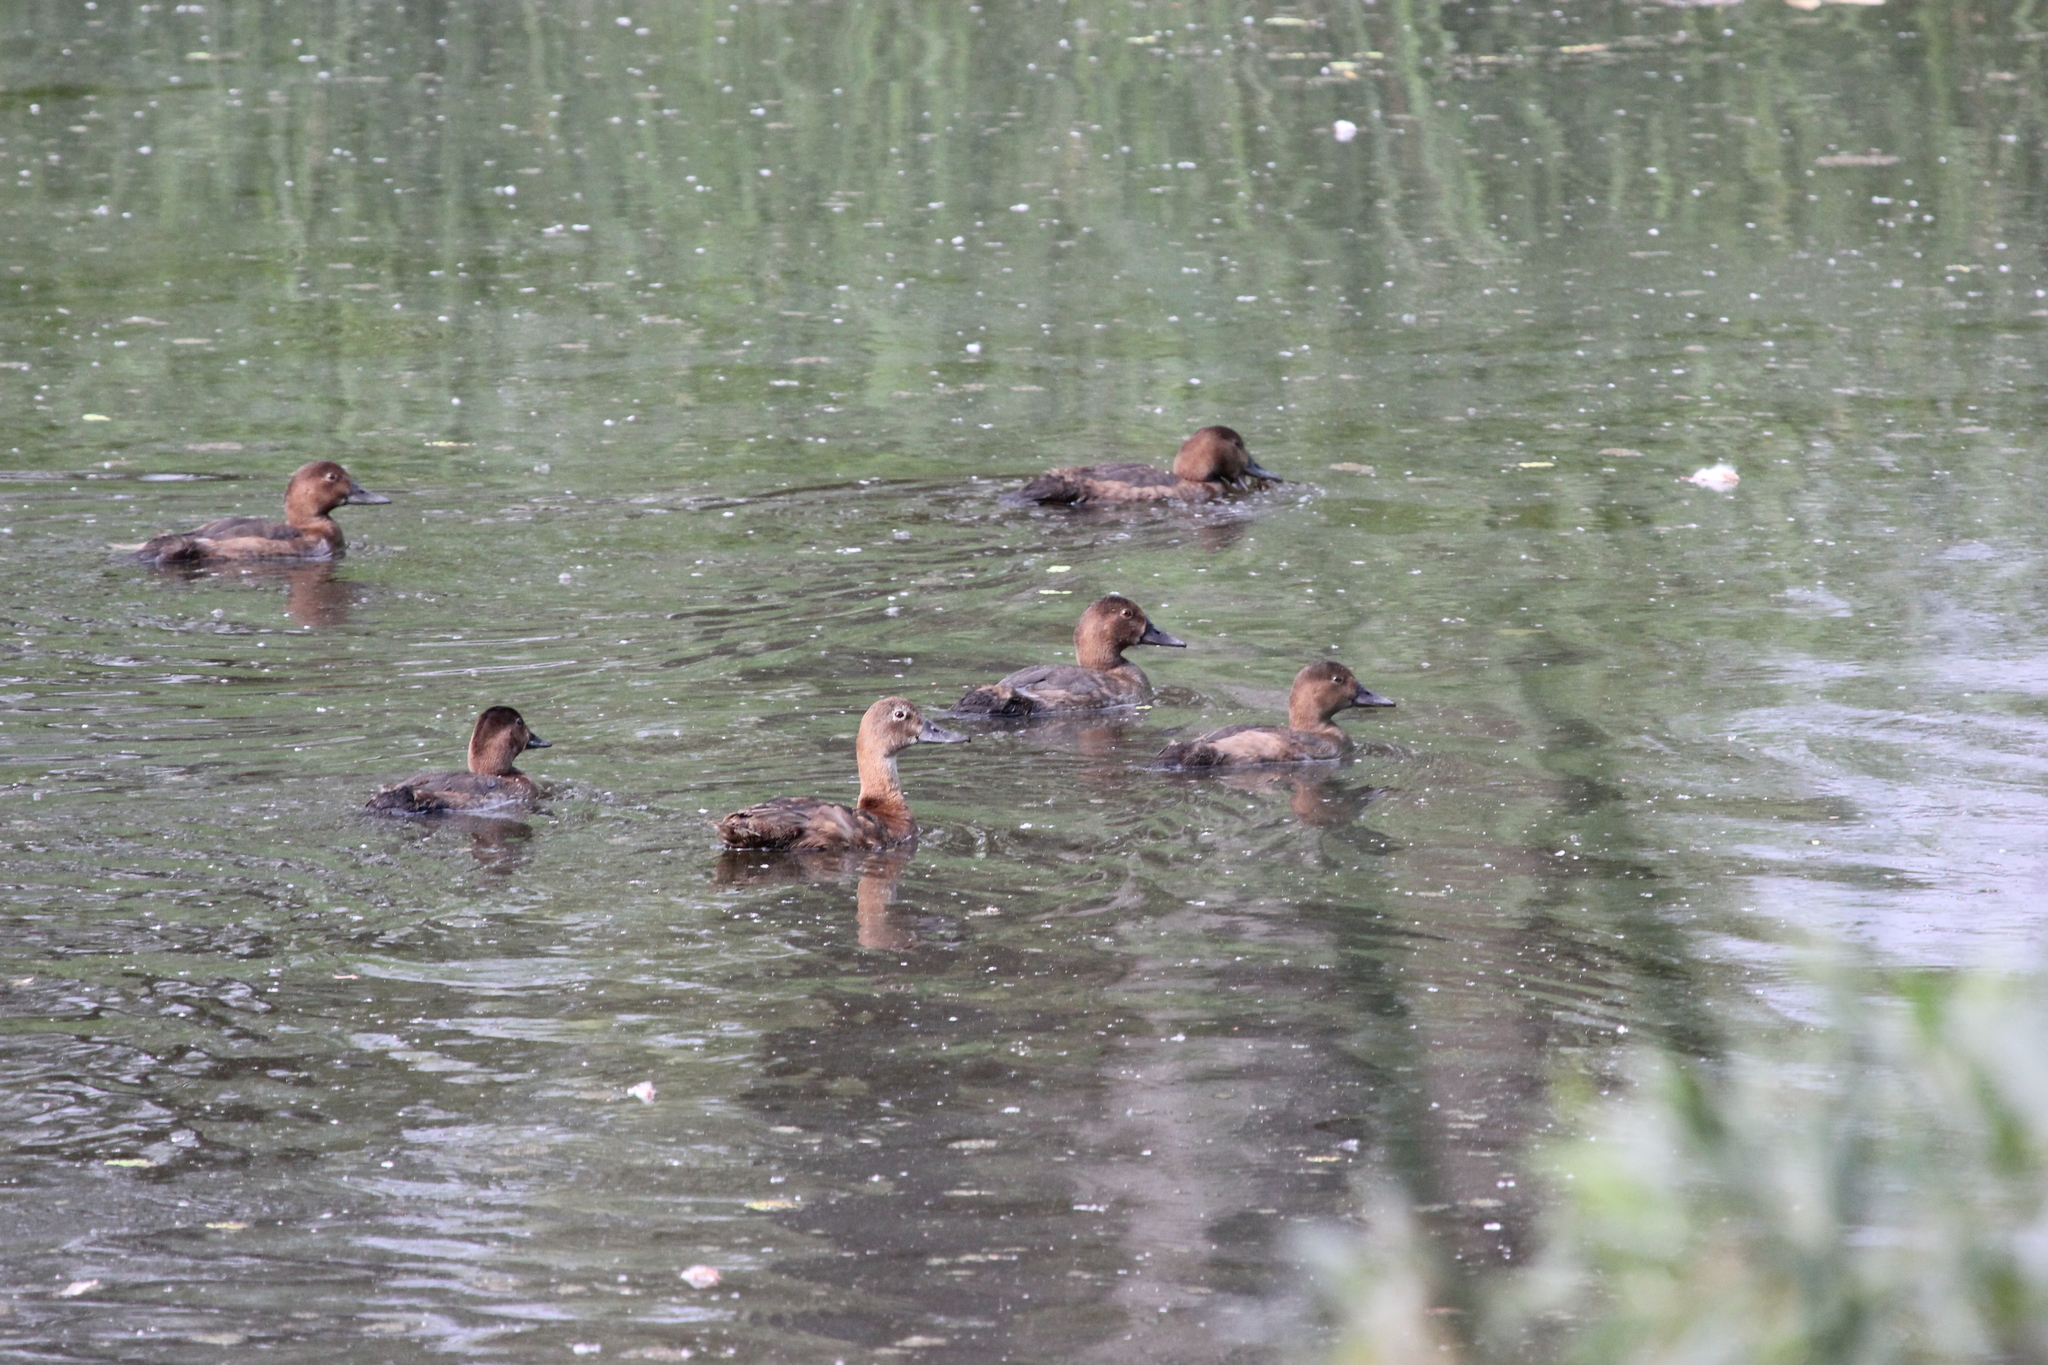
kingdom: Animalia
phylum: Chordata
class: Aves
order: Anseriformes
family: Anatidae
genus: Aythya
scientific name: Aythya ferina
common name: Common pochard
